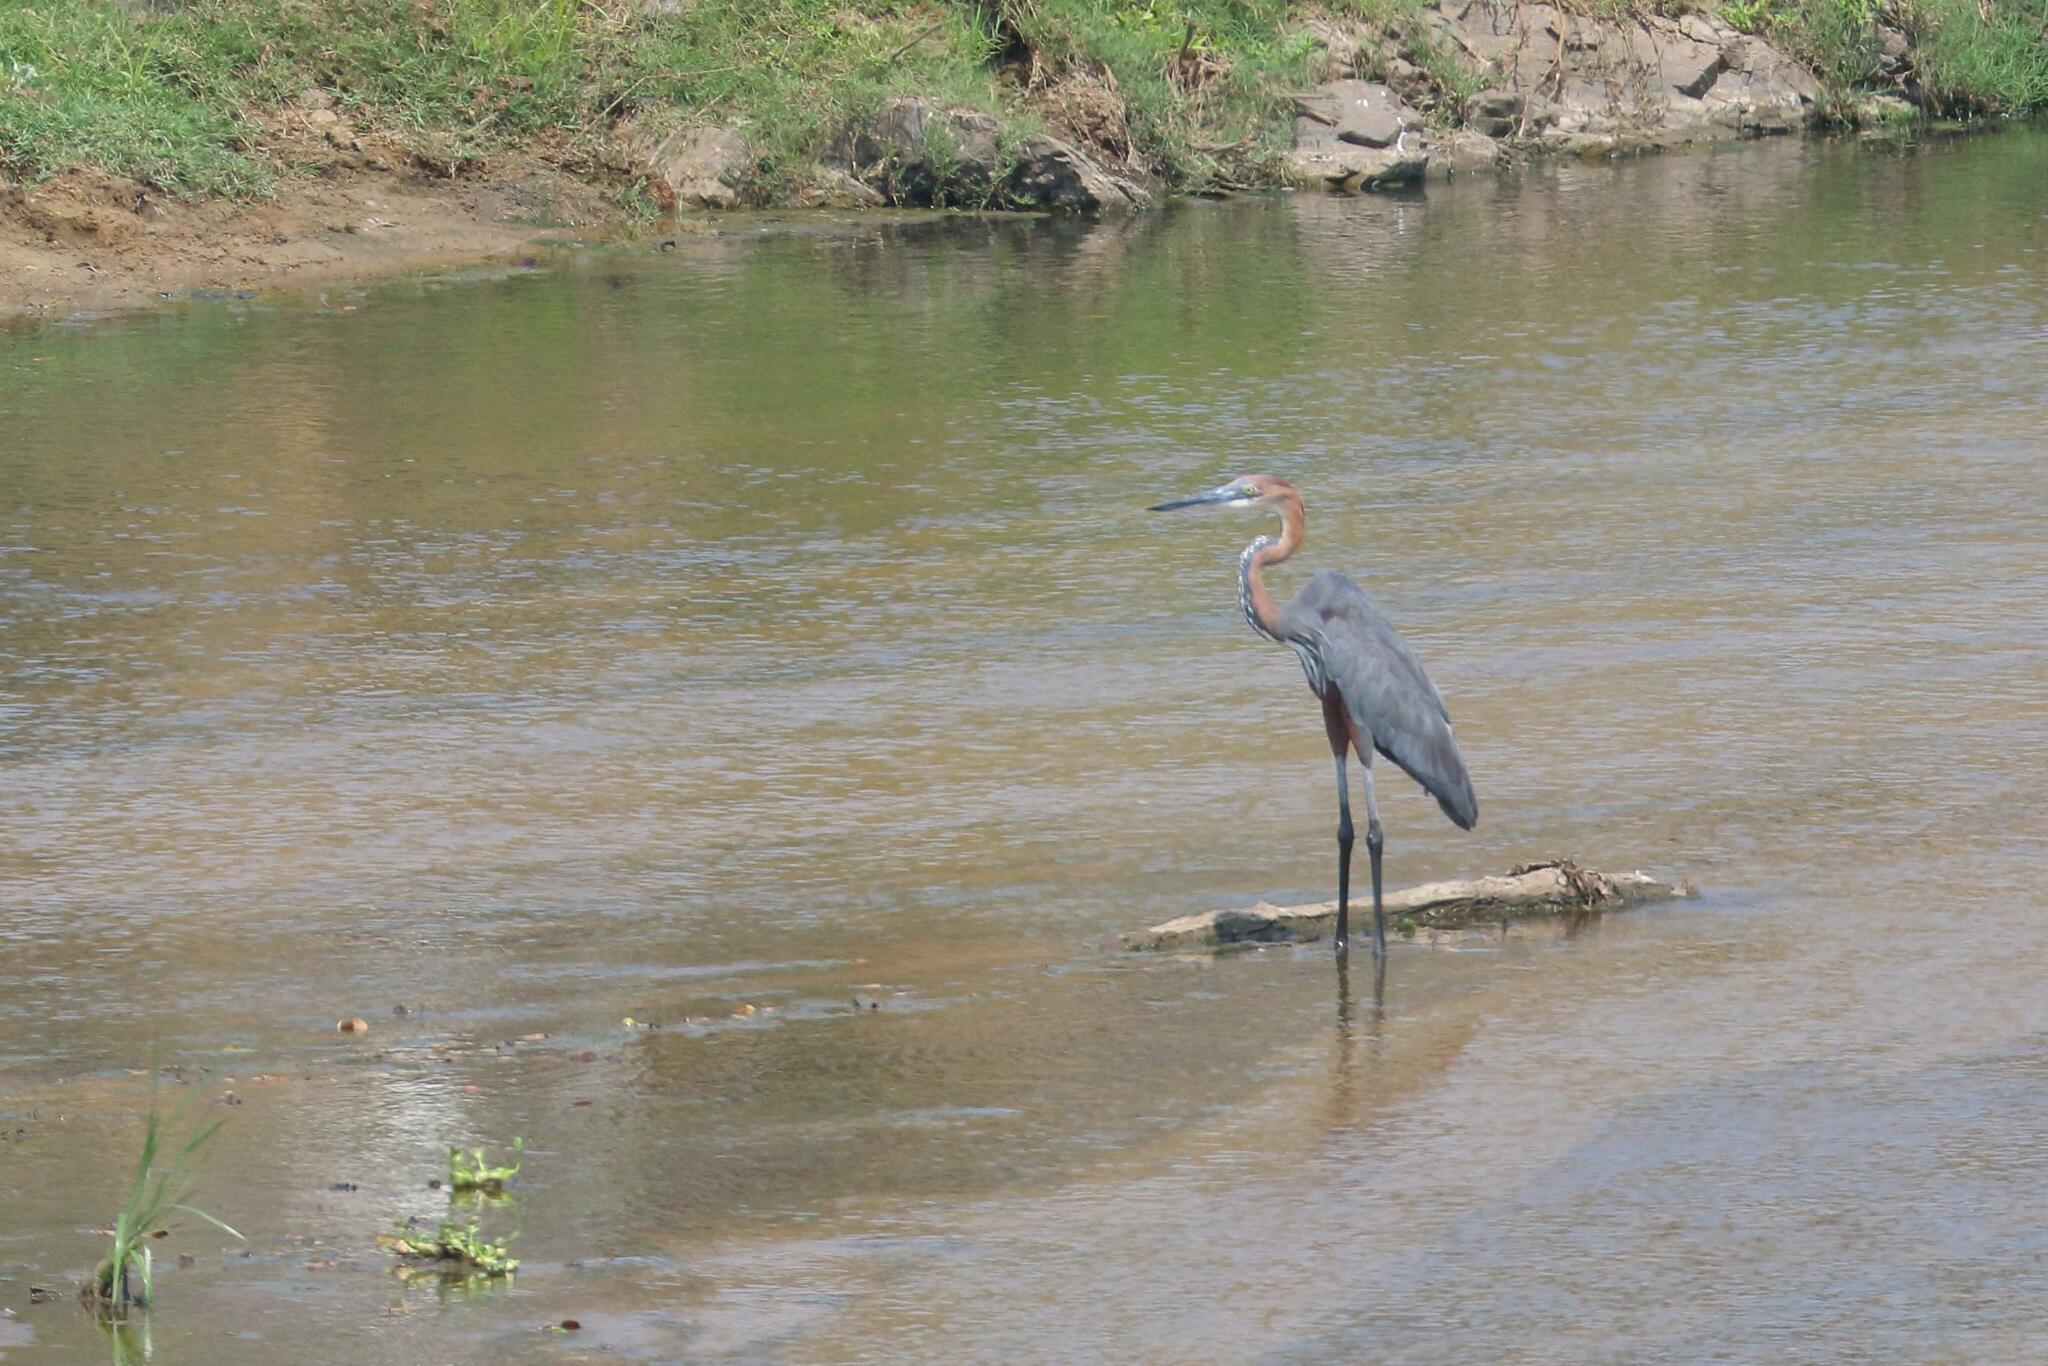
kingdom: Animalia
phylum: Chordata
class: Aves
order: Pelecaniformes
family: Ardeidae
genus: Ardea
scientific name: Ardea goliath
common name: Goliath heron
